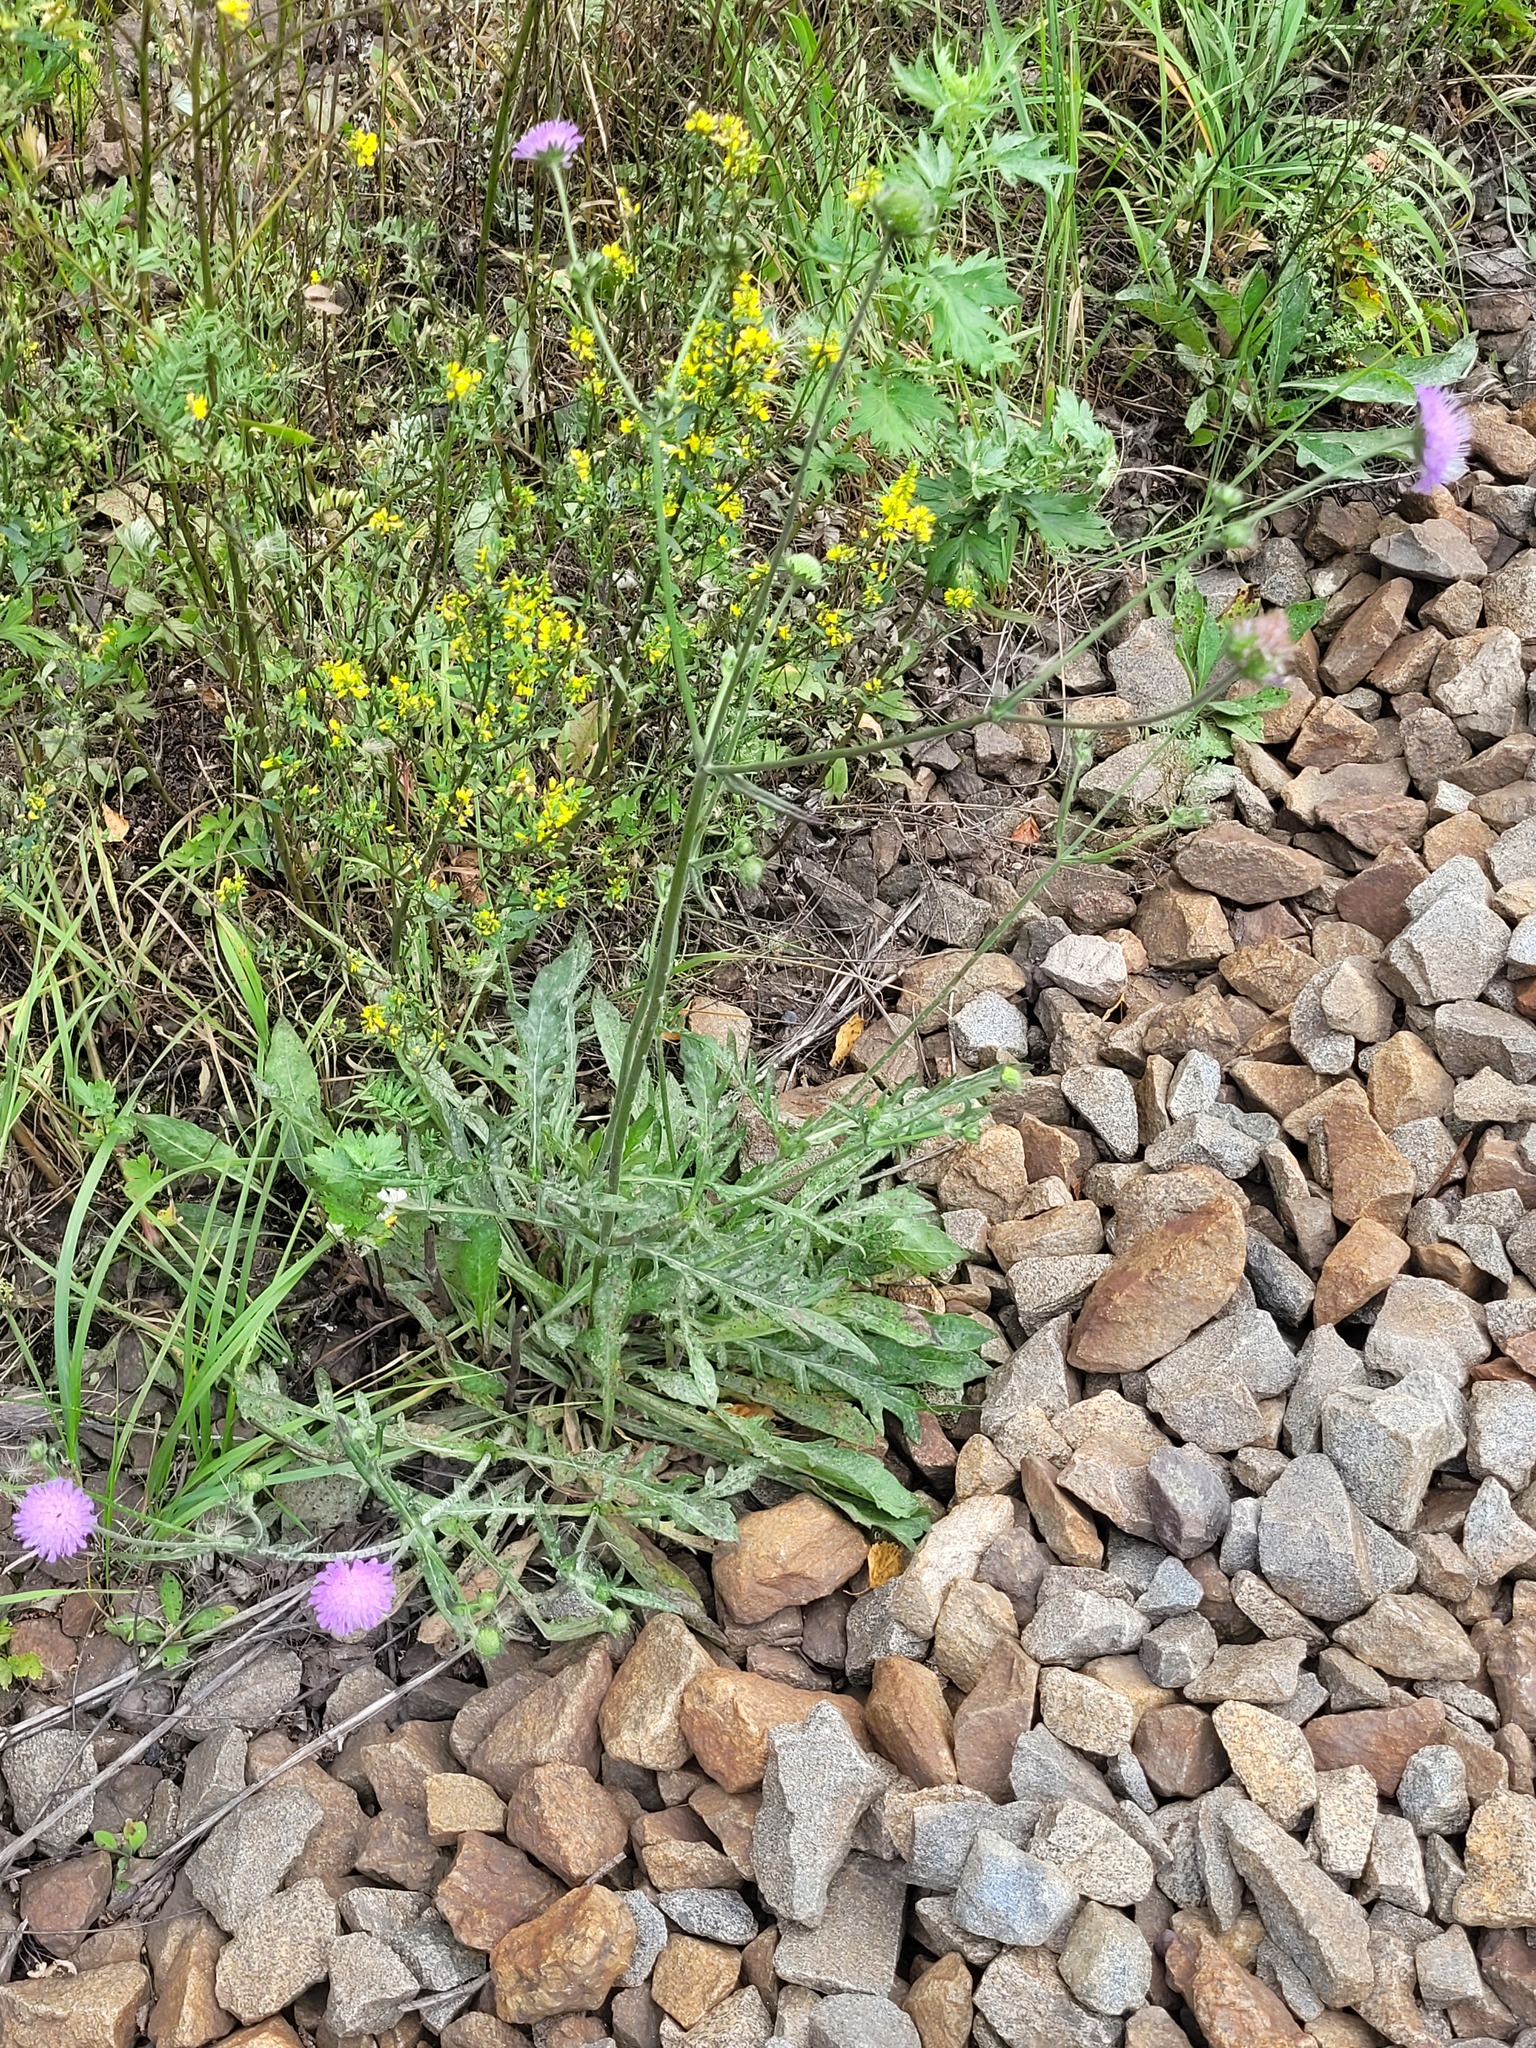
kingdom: Plantae
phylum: Tracheophyta
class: Magnoliopsida
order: Dipsacales
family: Caprifoliaceae
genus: Knautia
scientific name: Knautia arvensis
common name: Field scabiosa
